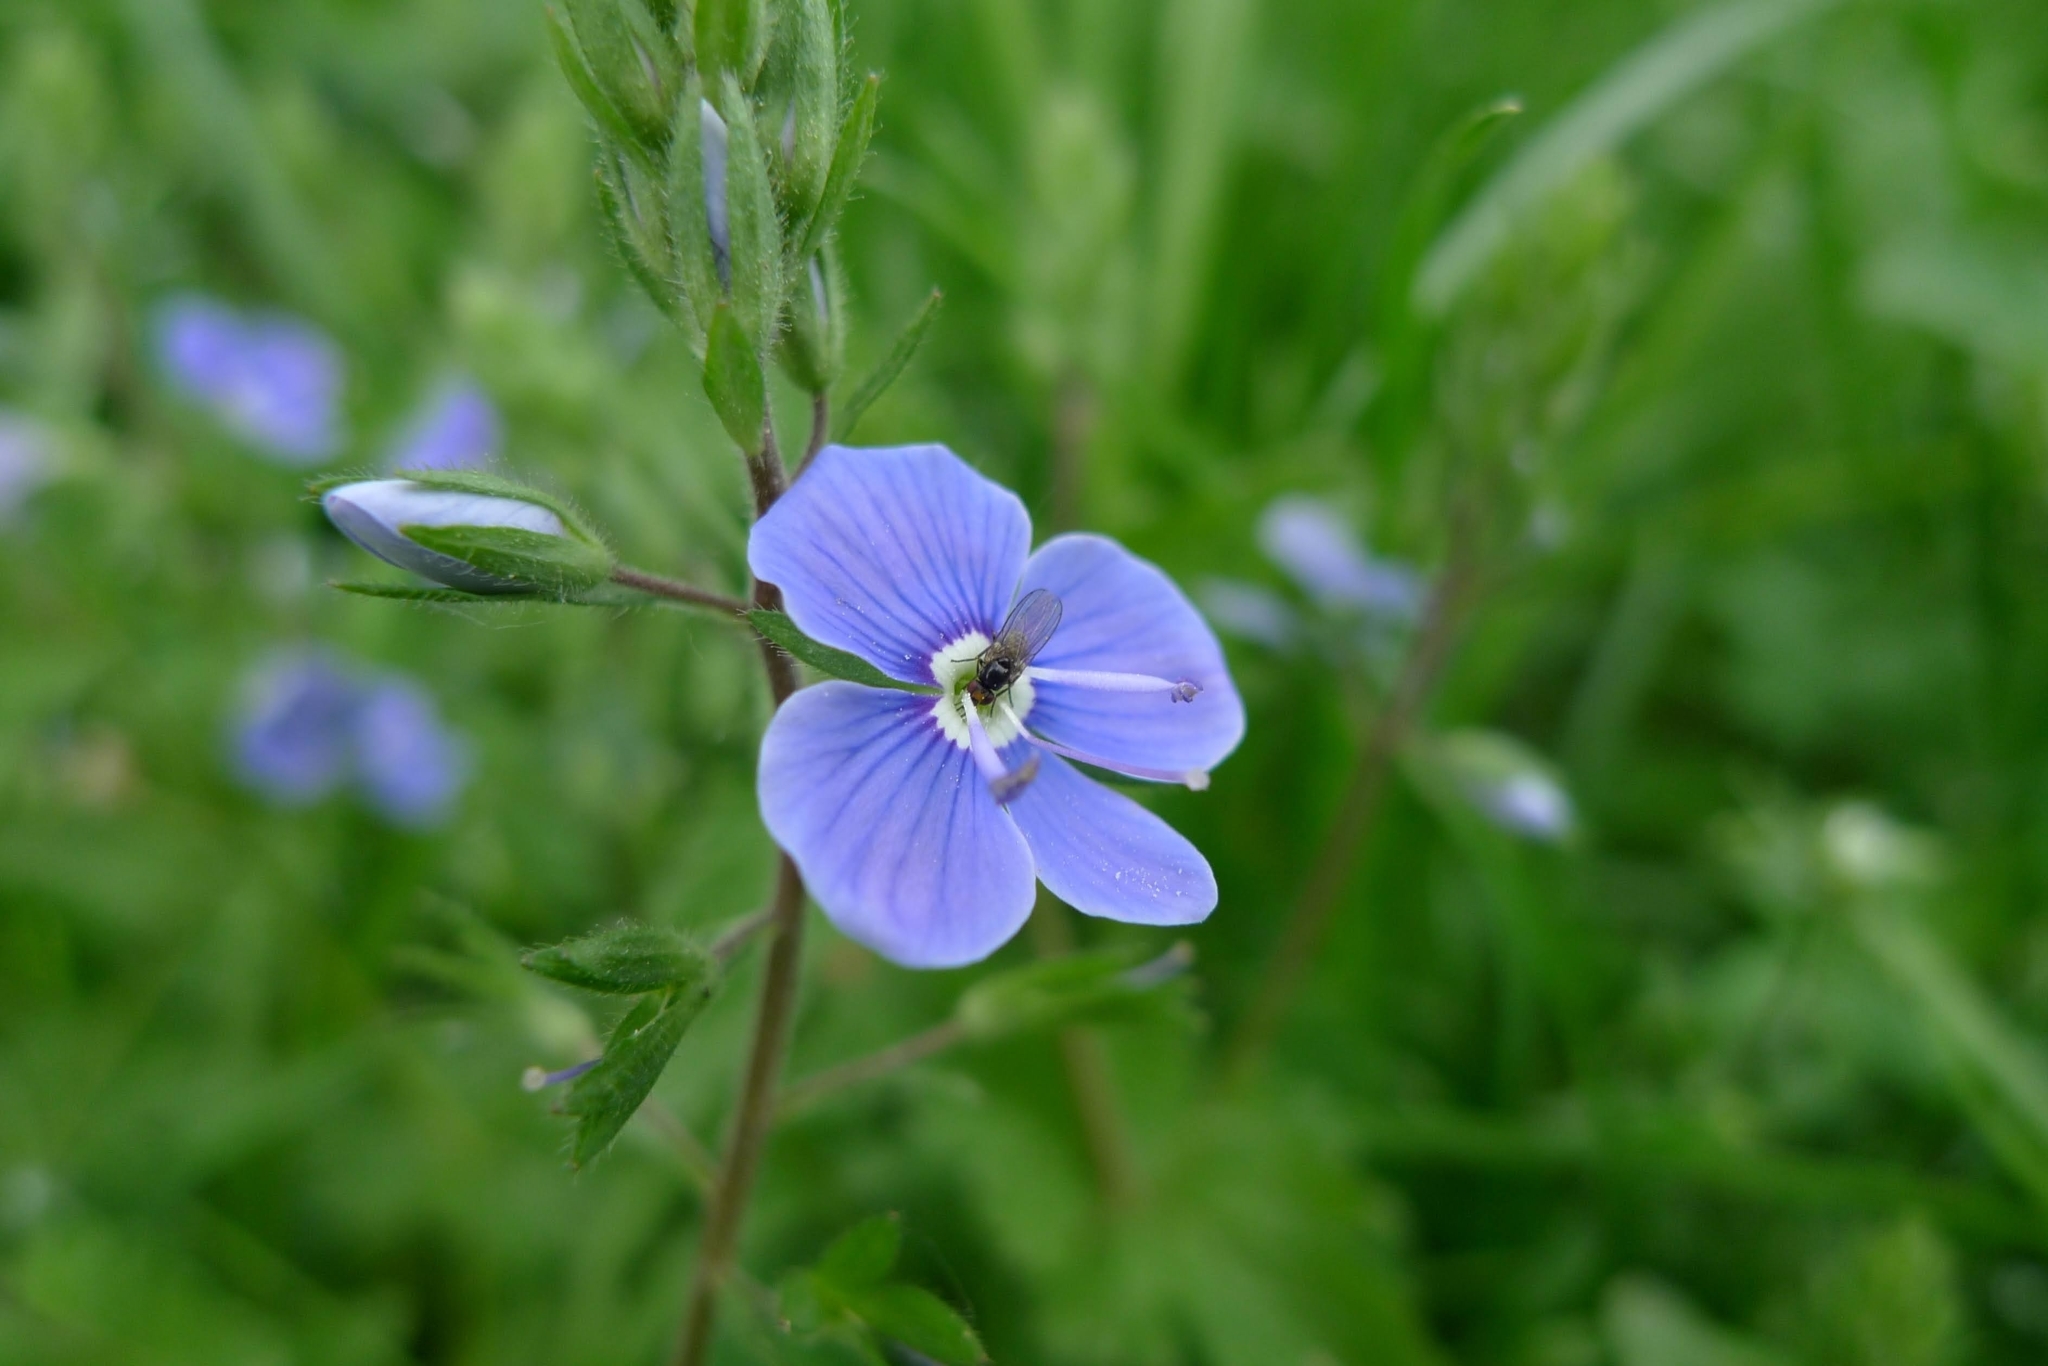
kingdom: Plantae
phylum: Tracheophyta
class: Magnoliopsida
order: Lamiales
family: Plantaginaceae
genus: Veronica
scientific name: Veronica chamaedrys
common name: Germander speedwell
